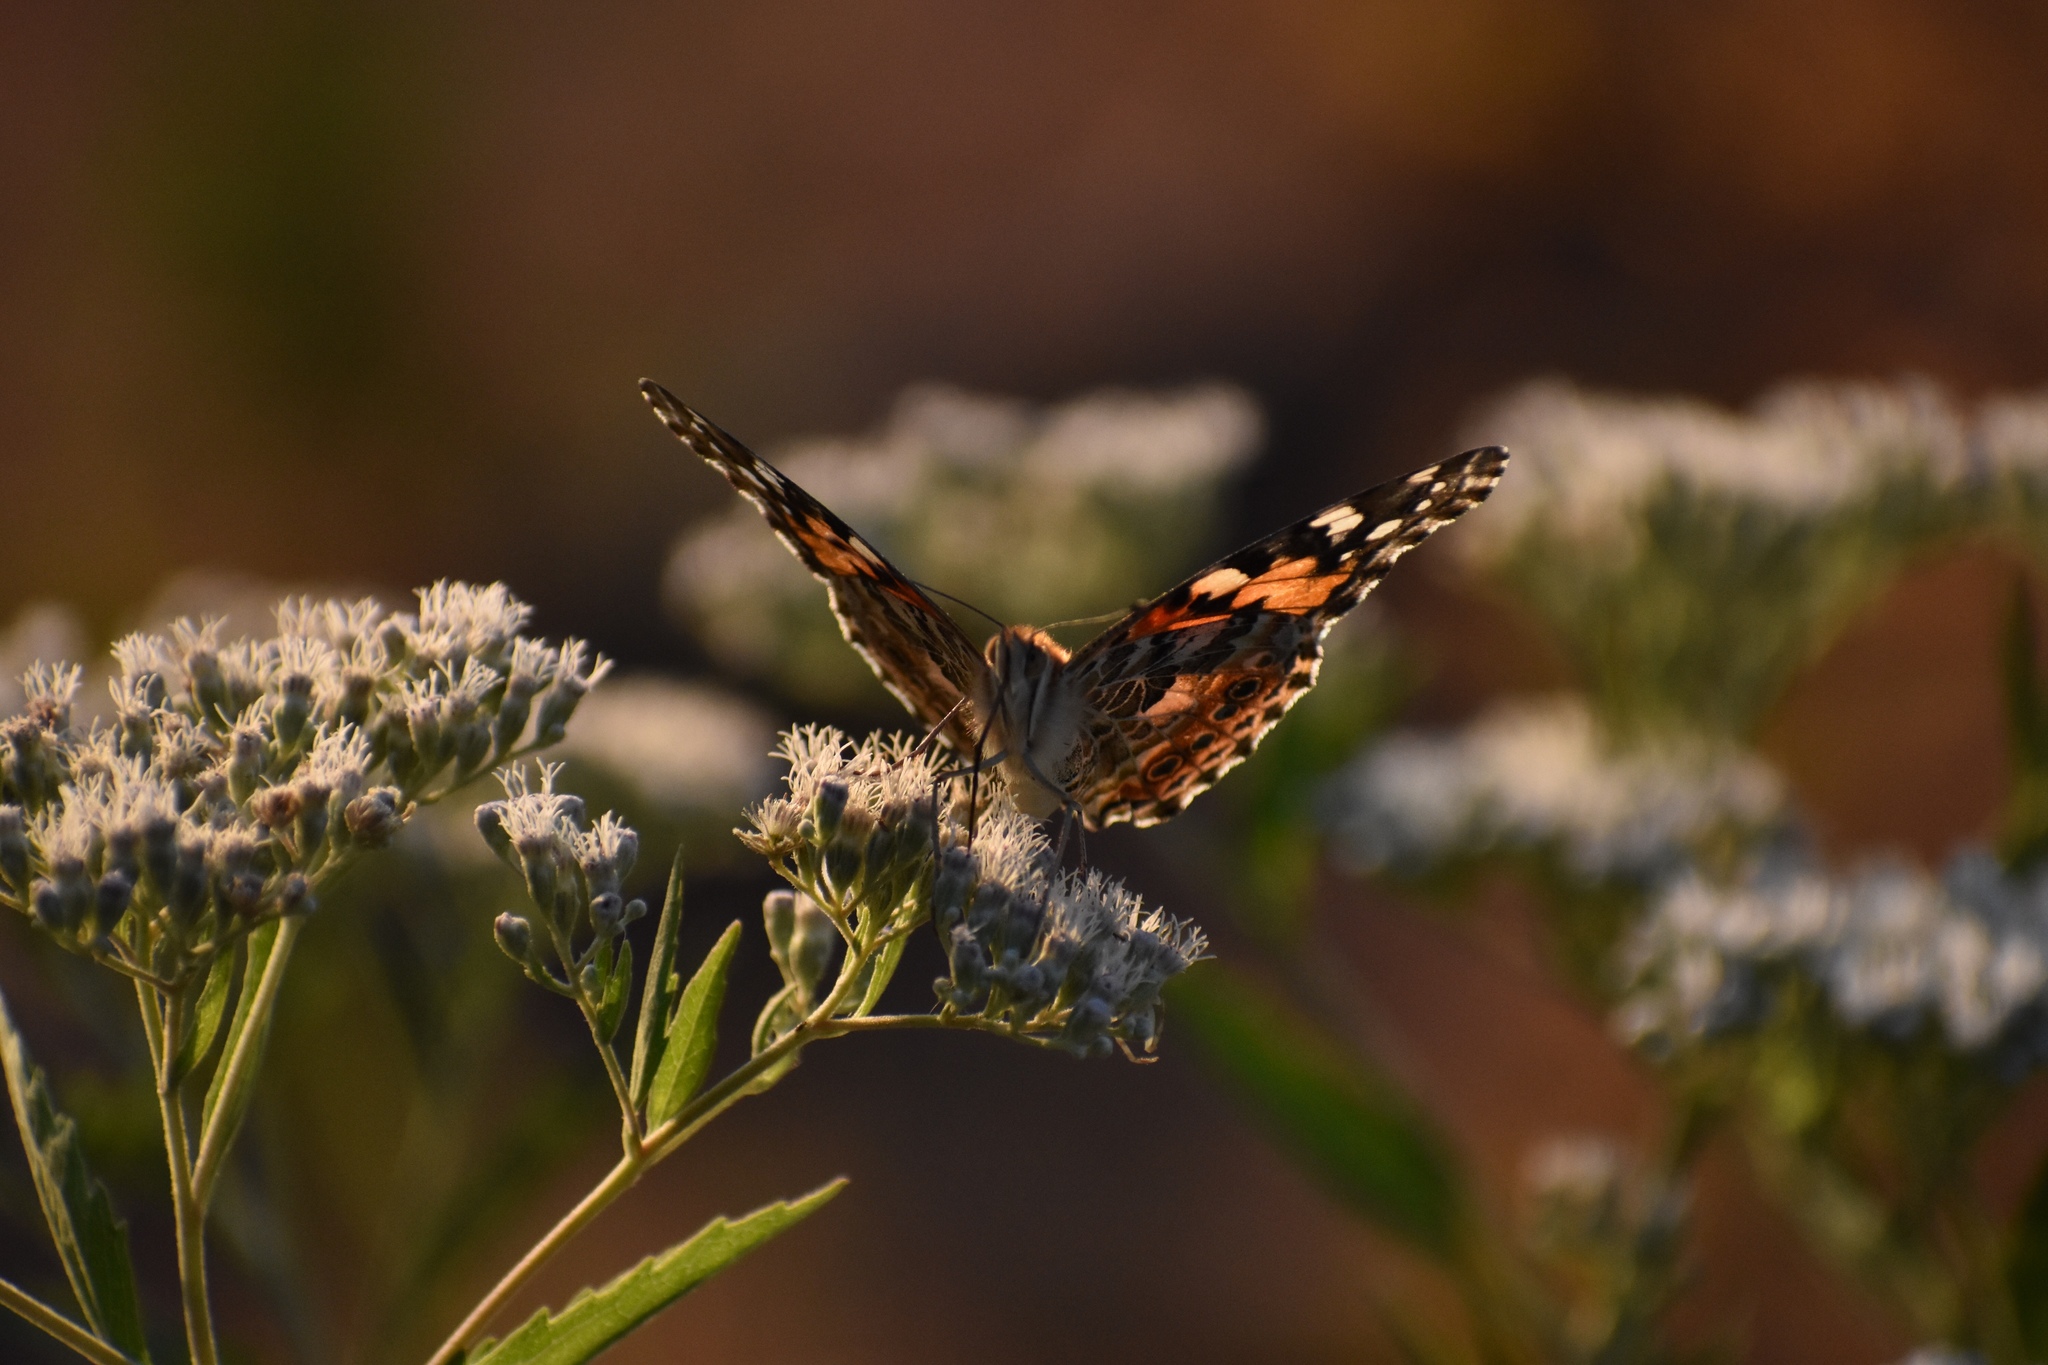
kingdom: Animalia
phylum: Arthropoda
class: Insecta
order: Lepidoptera
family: Nymphalidae
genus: Vanessa
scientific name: Vanessa cardui
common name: Painted lady
